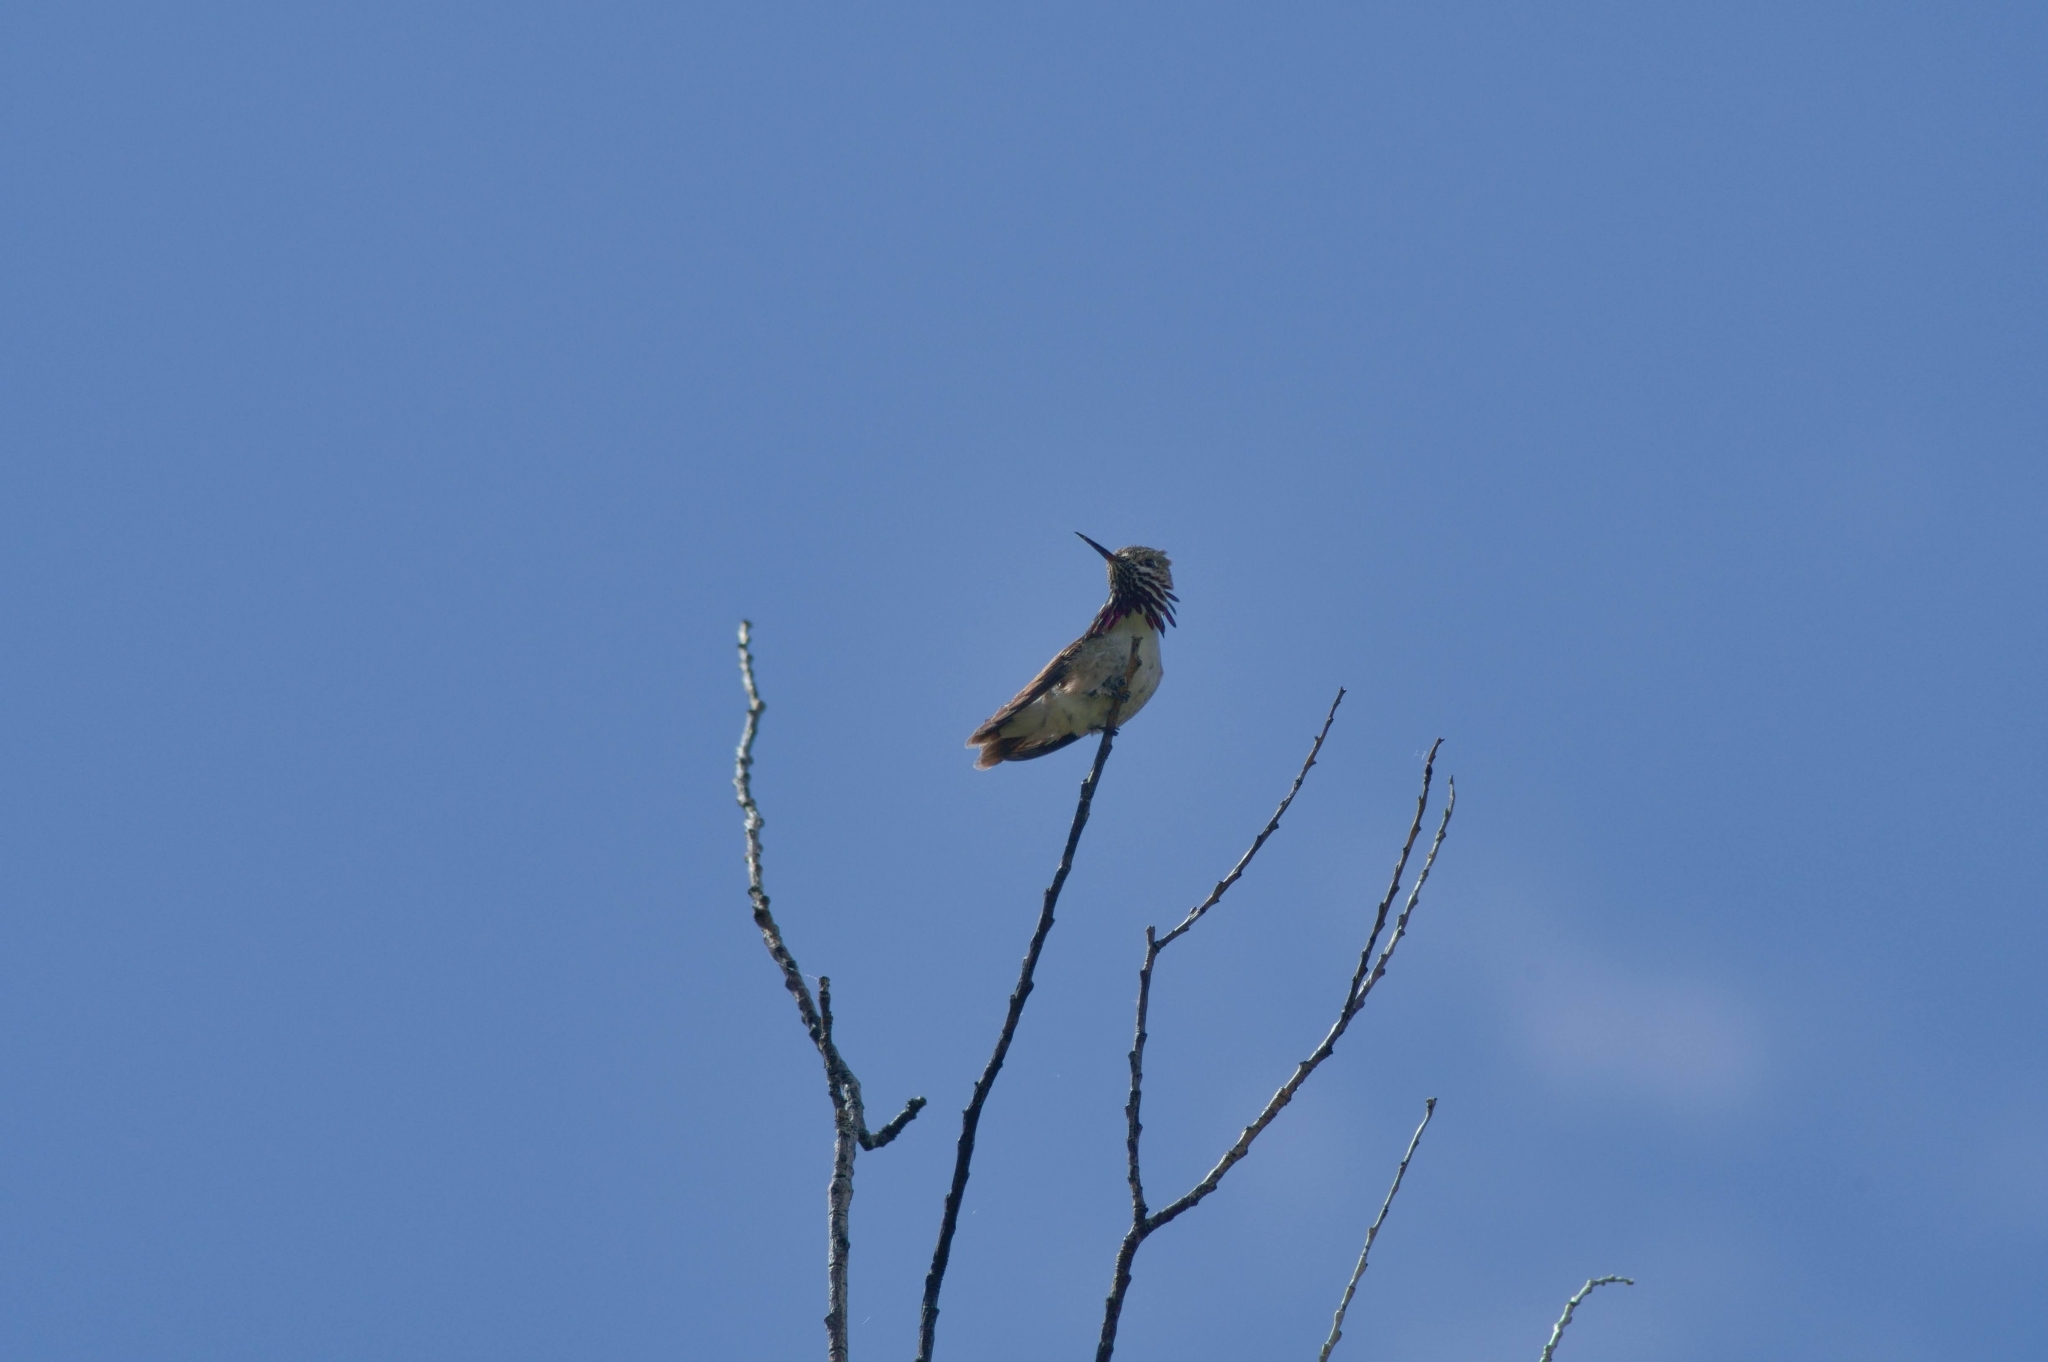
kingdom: Animalia
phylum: Chordata
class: Aves
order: Apodiformes
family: Trochilidae
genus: Selasphorus
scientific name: Selasphorus calliope
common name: Calliope hummingbird
